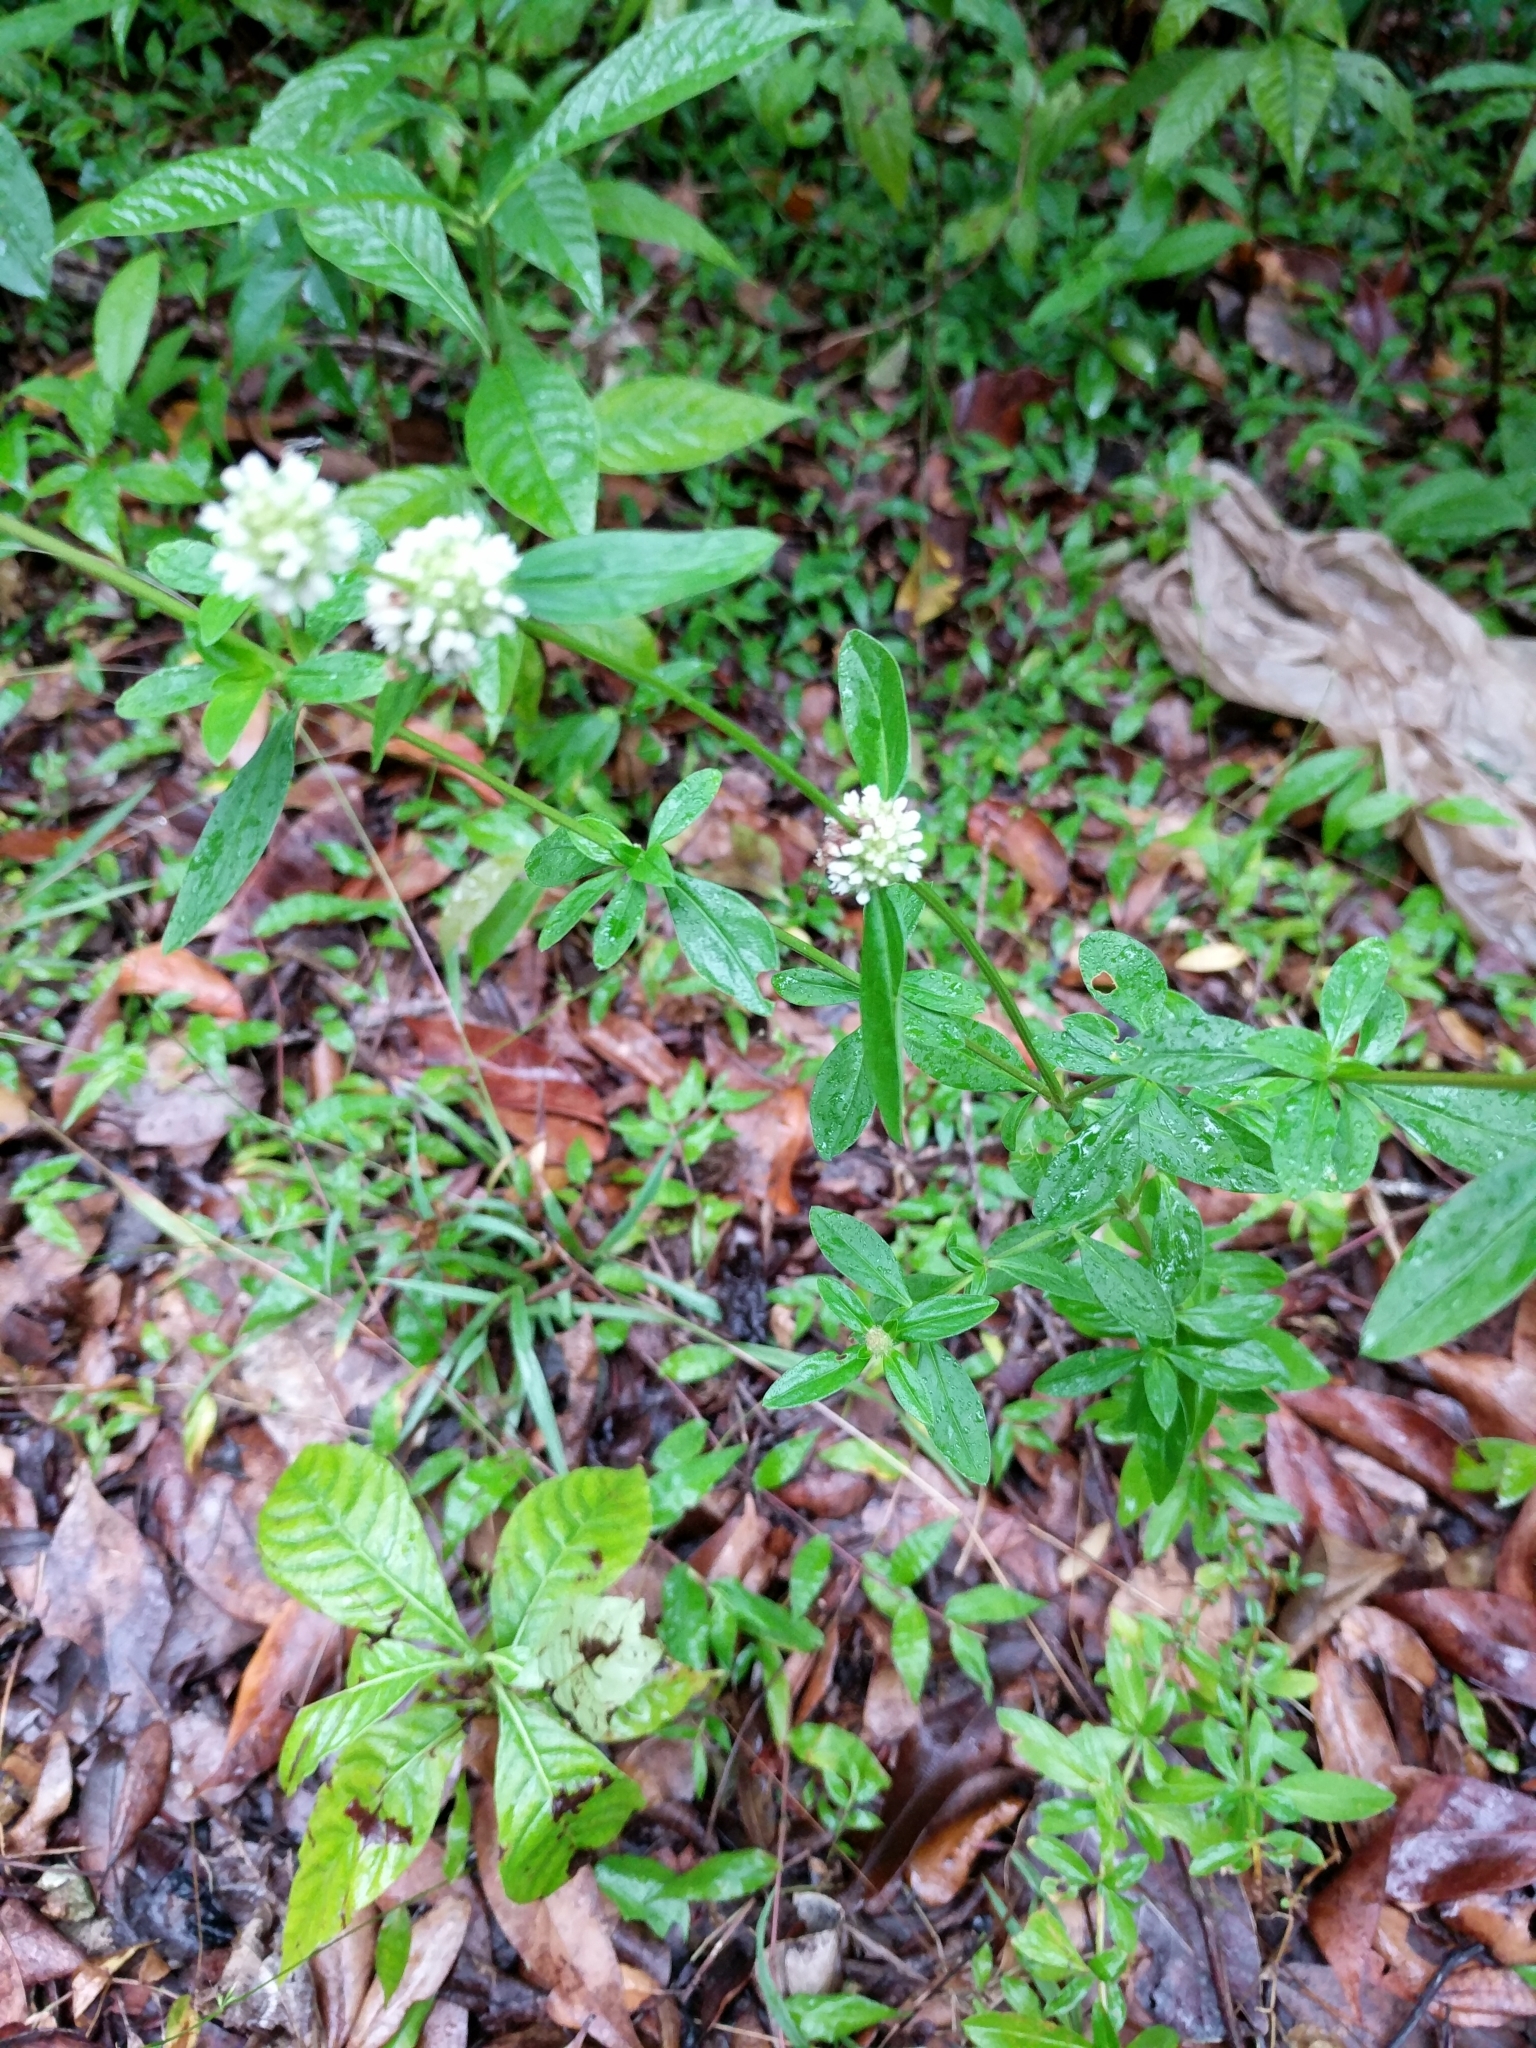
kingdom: Plantae
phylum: Tracheophyta
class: Magnoliopsida
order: Gentianales
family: Rubiaceae
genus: Spermacoce
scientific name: Spermacoce verticillata
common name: Shrubby false buttonweed
